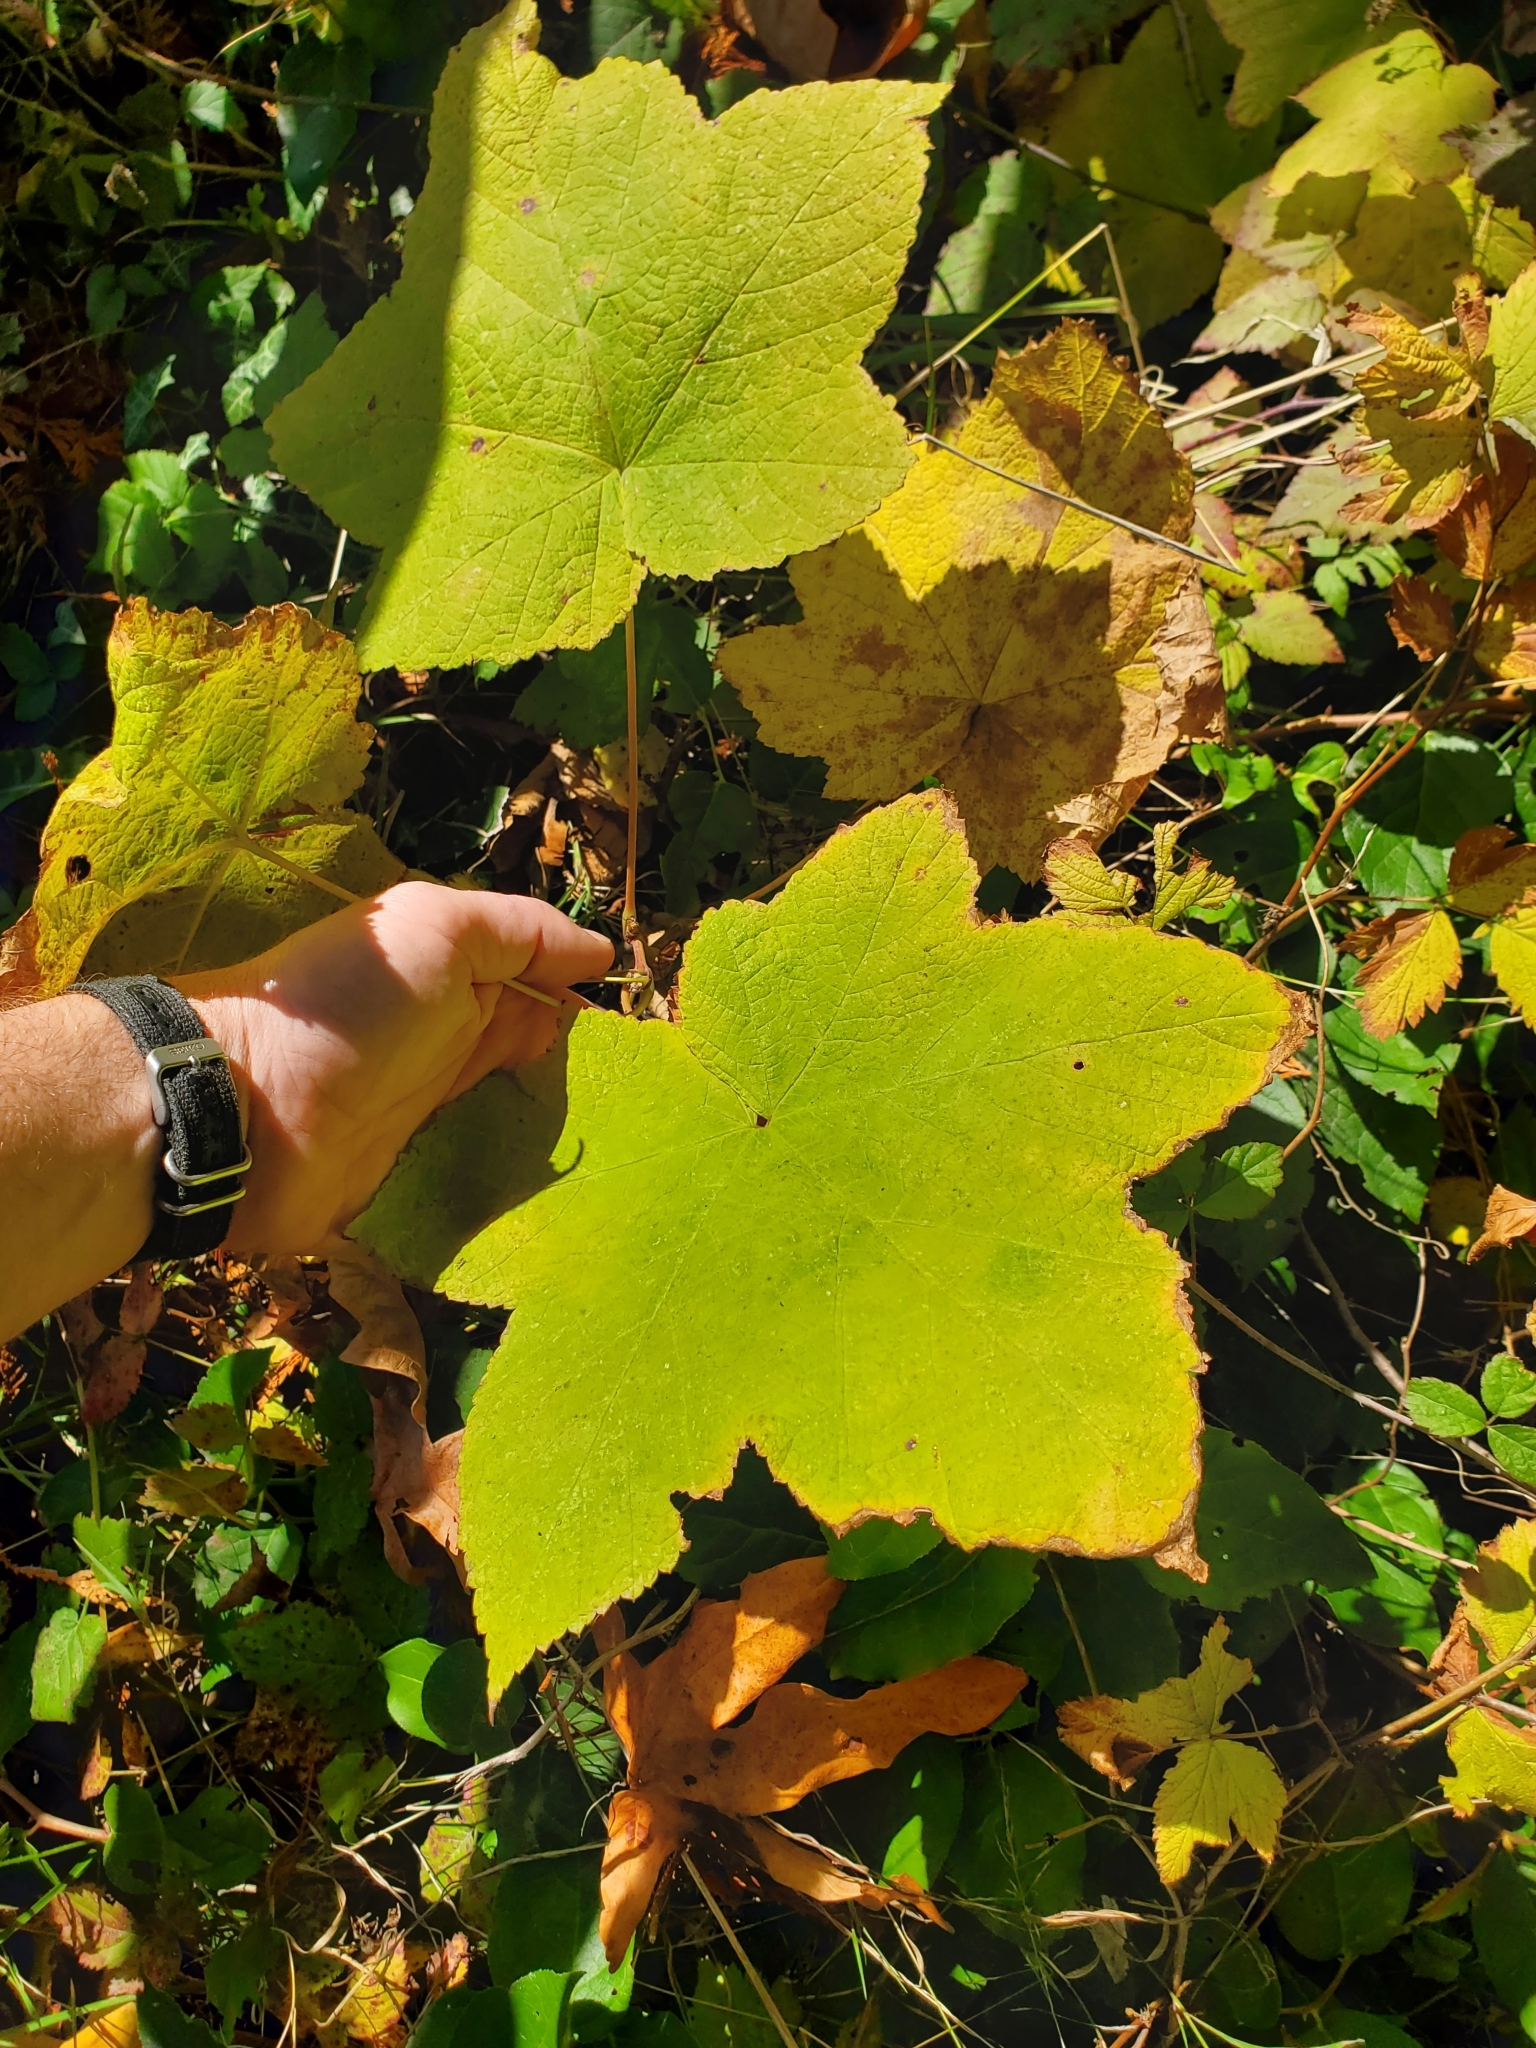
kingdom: Plantae
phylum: Tracheophyta
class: Magnoliopsida
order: Rosales
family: Rosaceae
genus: Rubus
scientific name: Rubus parviflorus
